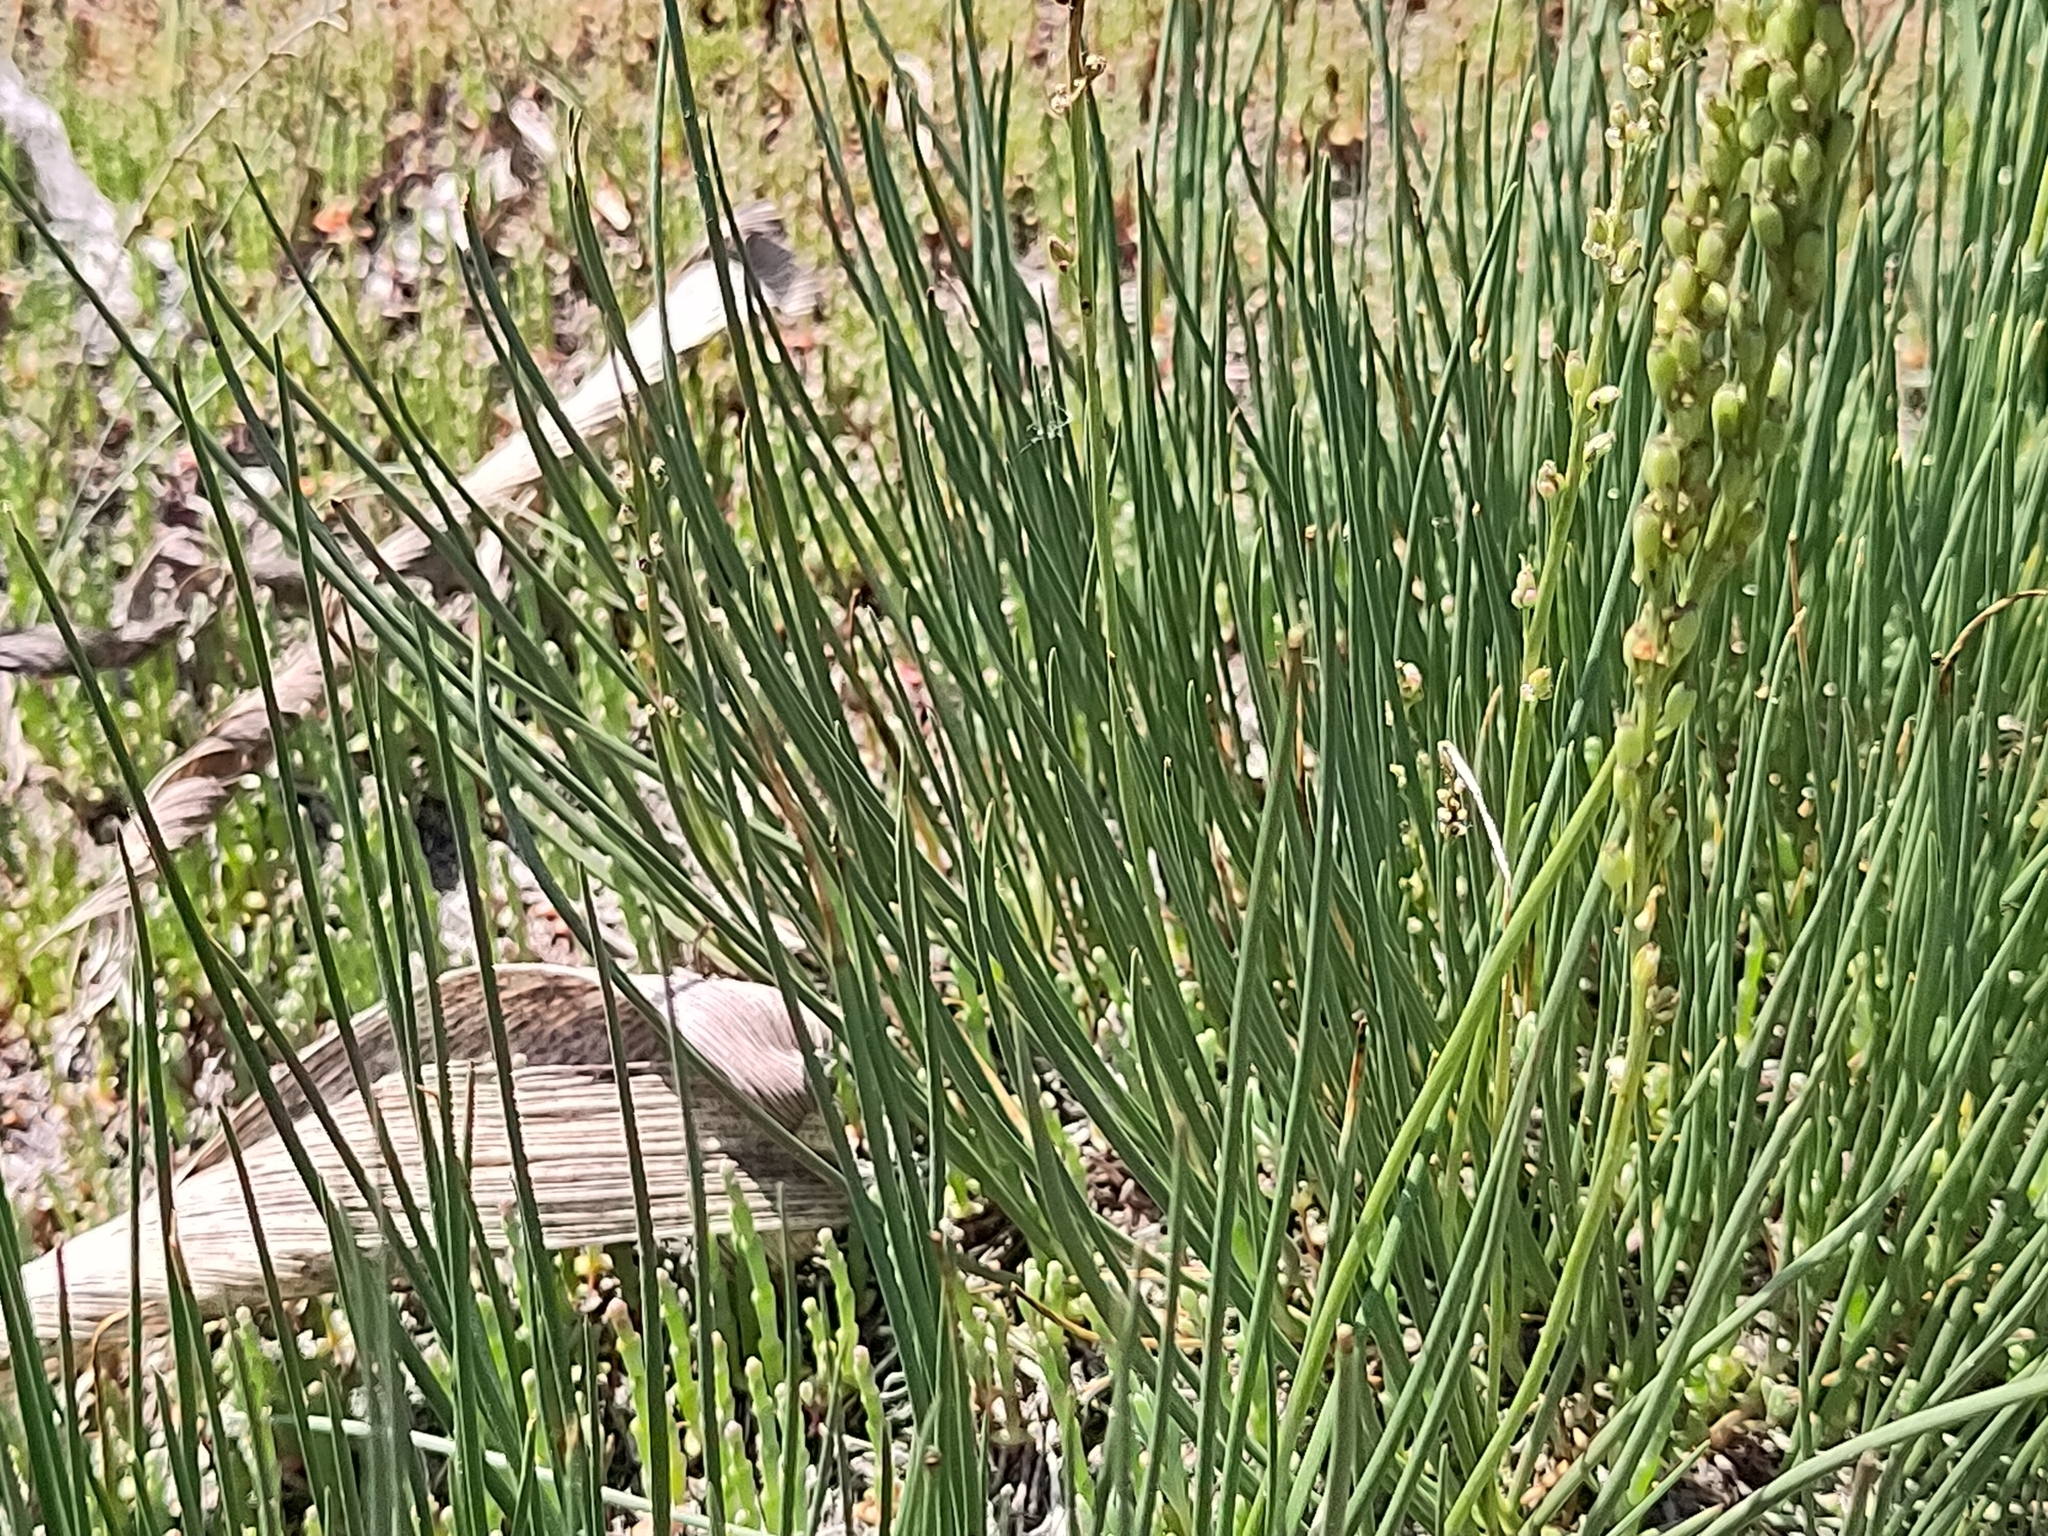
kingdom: Plantae
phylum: Tracheophyta
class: Liliopsida
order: Alismatales
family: Juncaginaceae
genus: Triglochin
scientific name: Triglochin maritima
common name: Sea arrowgrass
